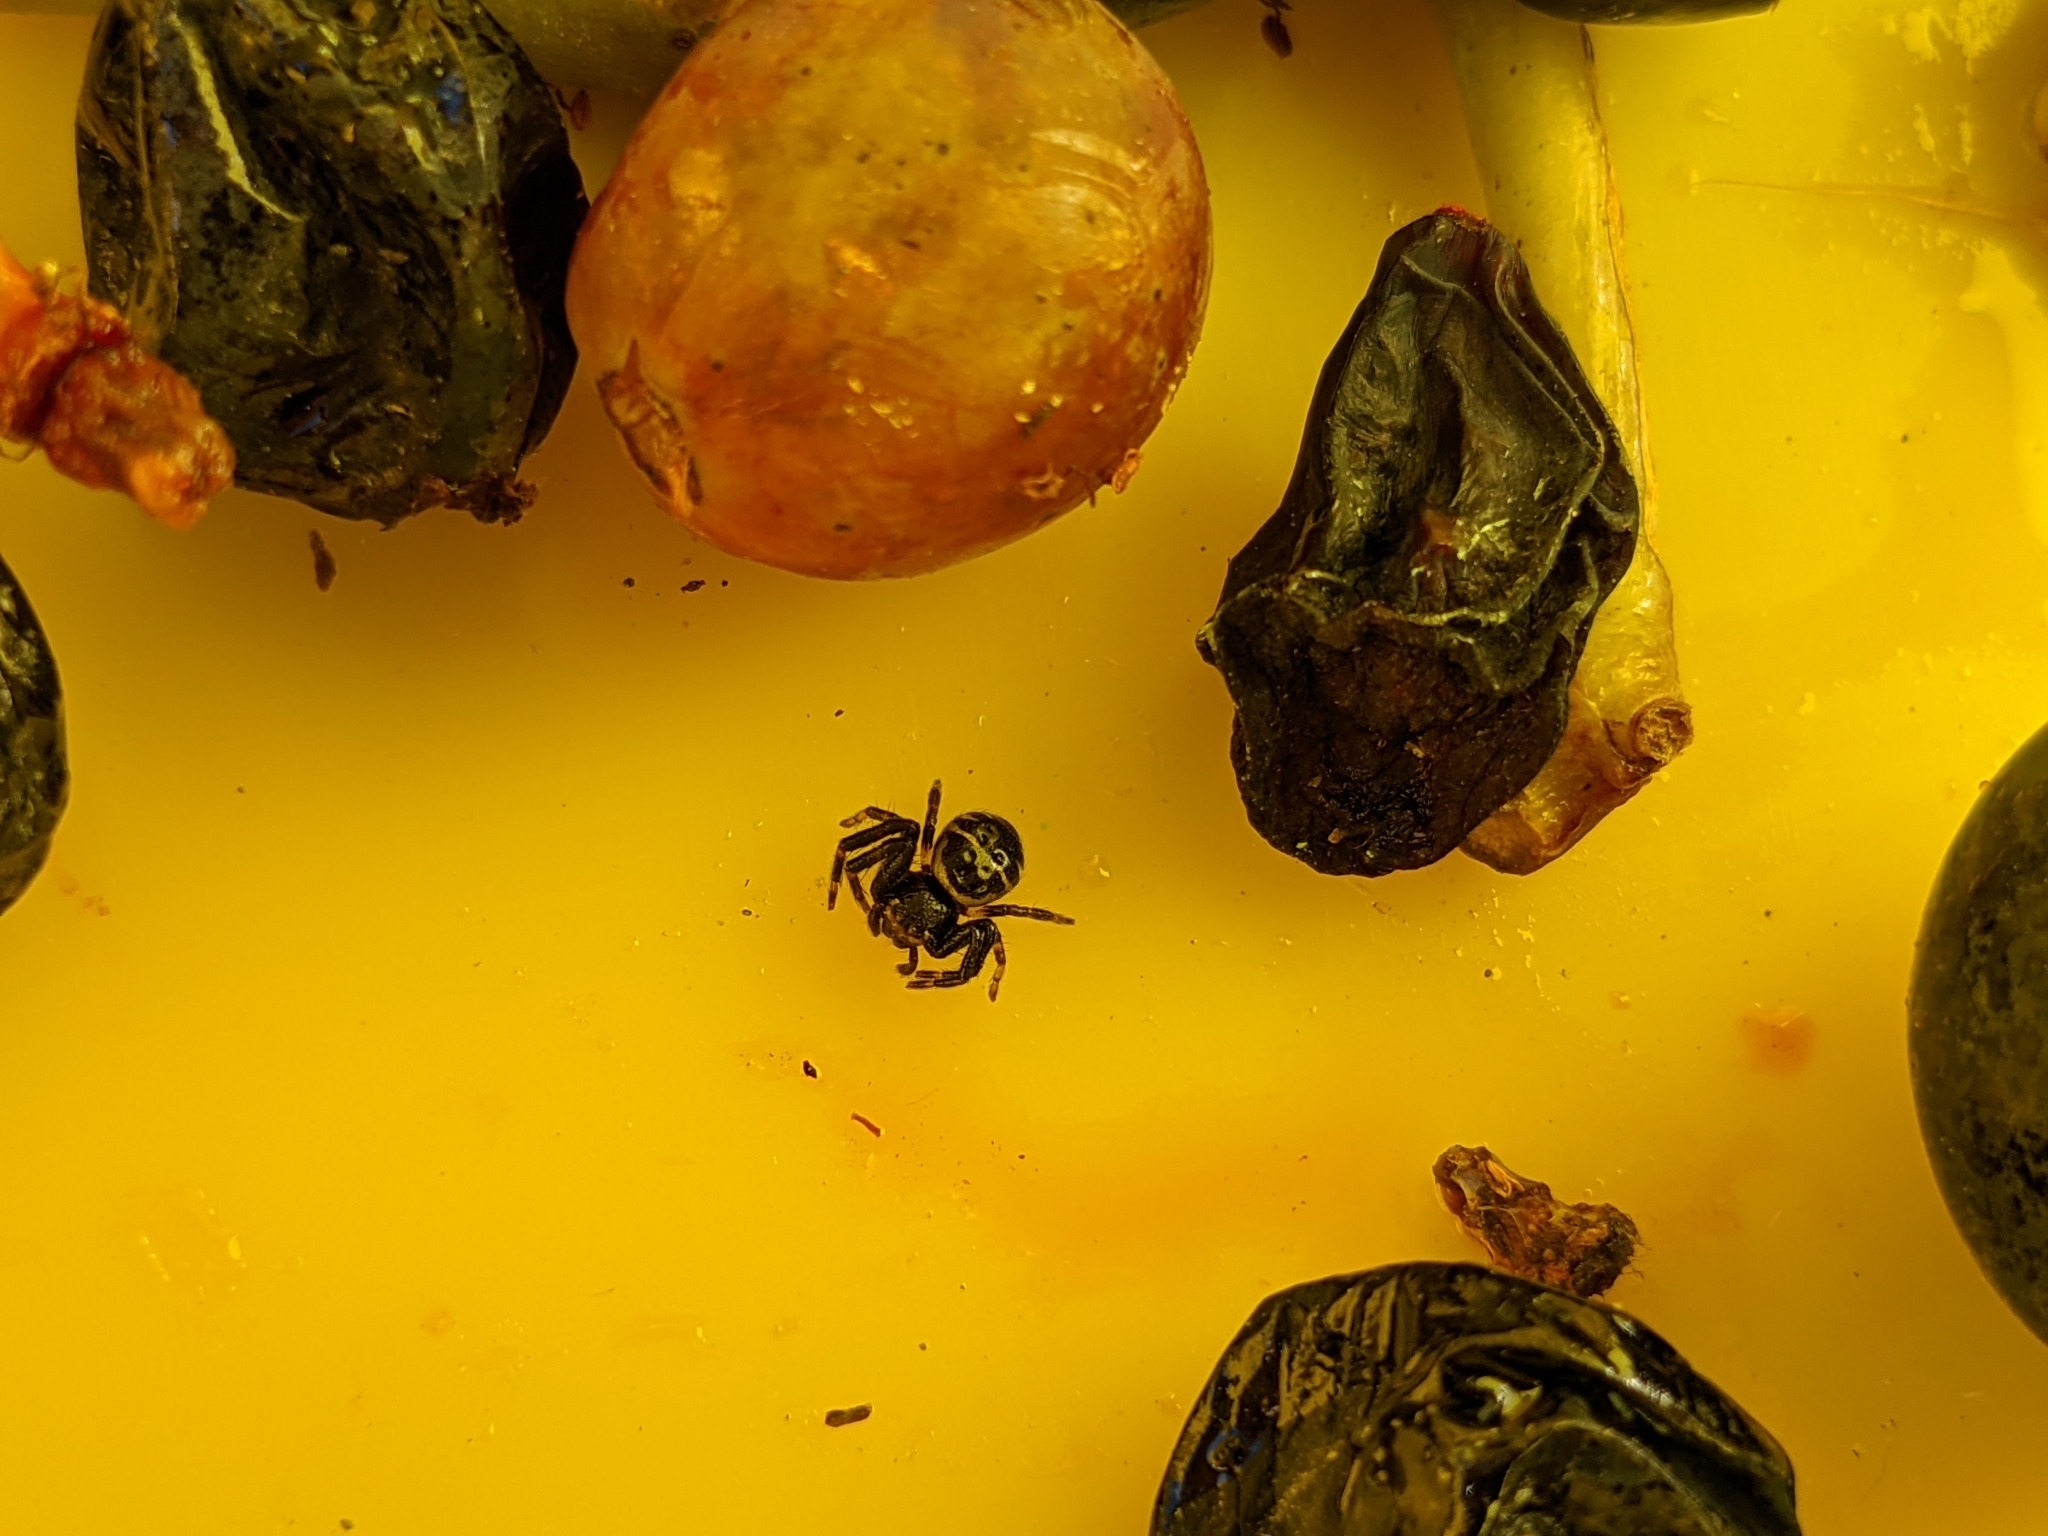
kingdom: Animalia
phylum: Arthropoda
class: Arachnida
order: Araneae
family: Thomisidae
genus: Synema
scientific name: Synema globosum
